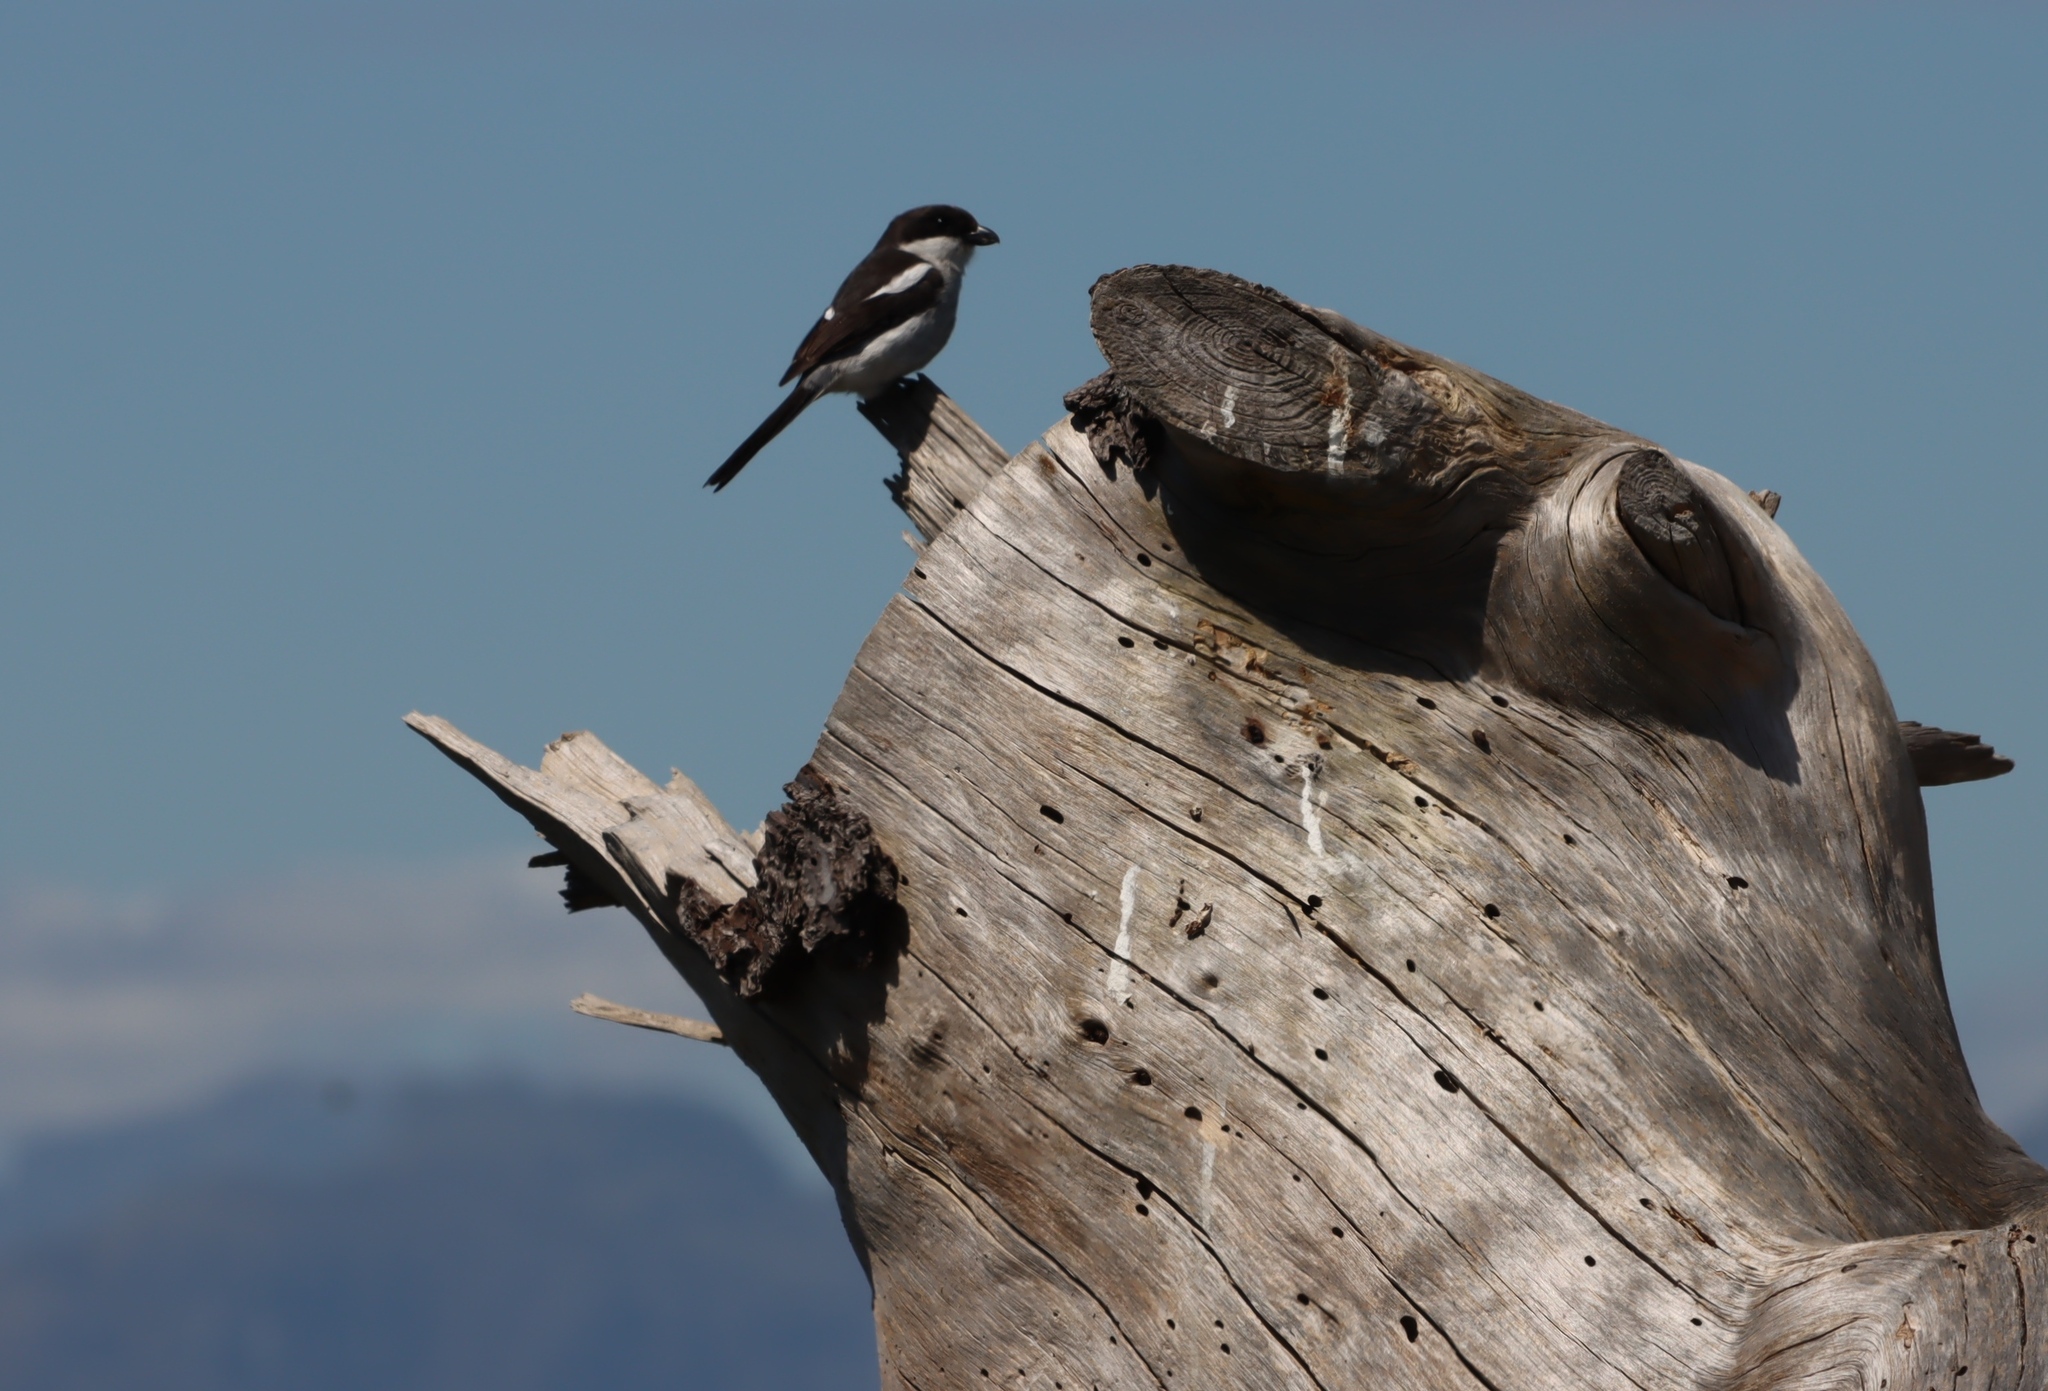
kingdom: Animalia
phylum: Chordata
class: Aves
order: Passeriformes
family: Laniidae
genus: Lanius
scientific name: Lanius collaris
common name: Southern fiscal
